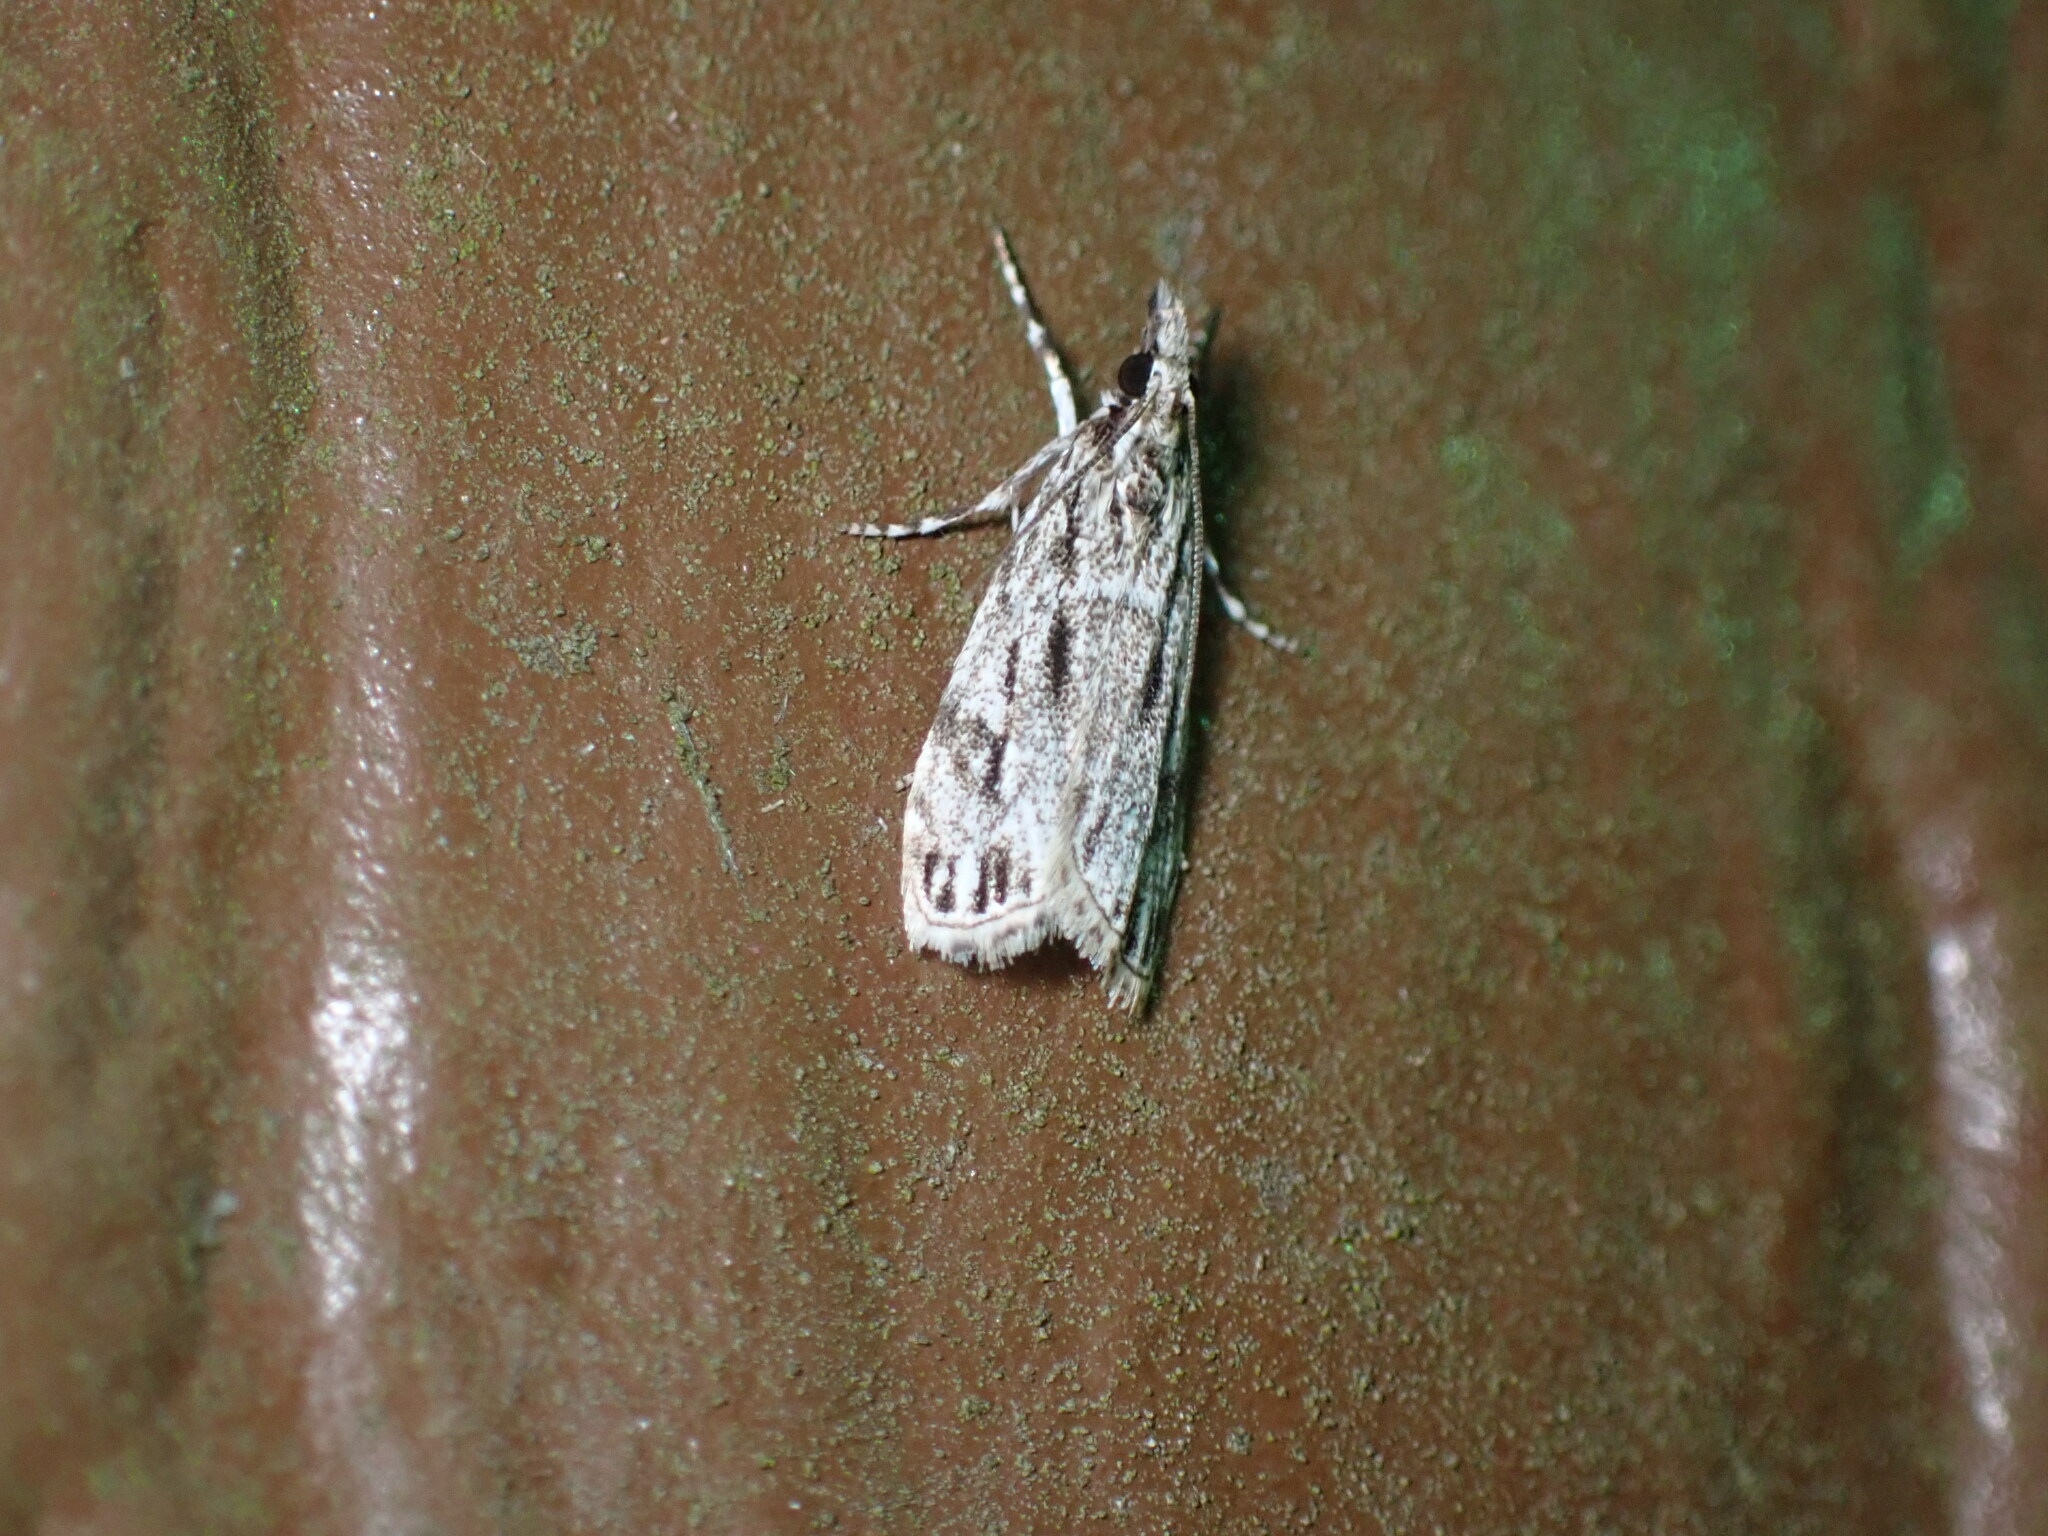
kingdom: Animalia
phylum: Arthropoda
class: Insecta
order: Lepidoptera
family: Crambidae
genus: Eudonia
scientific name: Eudonia strigalis
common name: Striped eudonia moth
